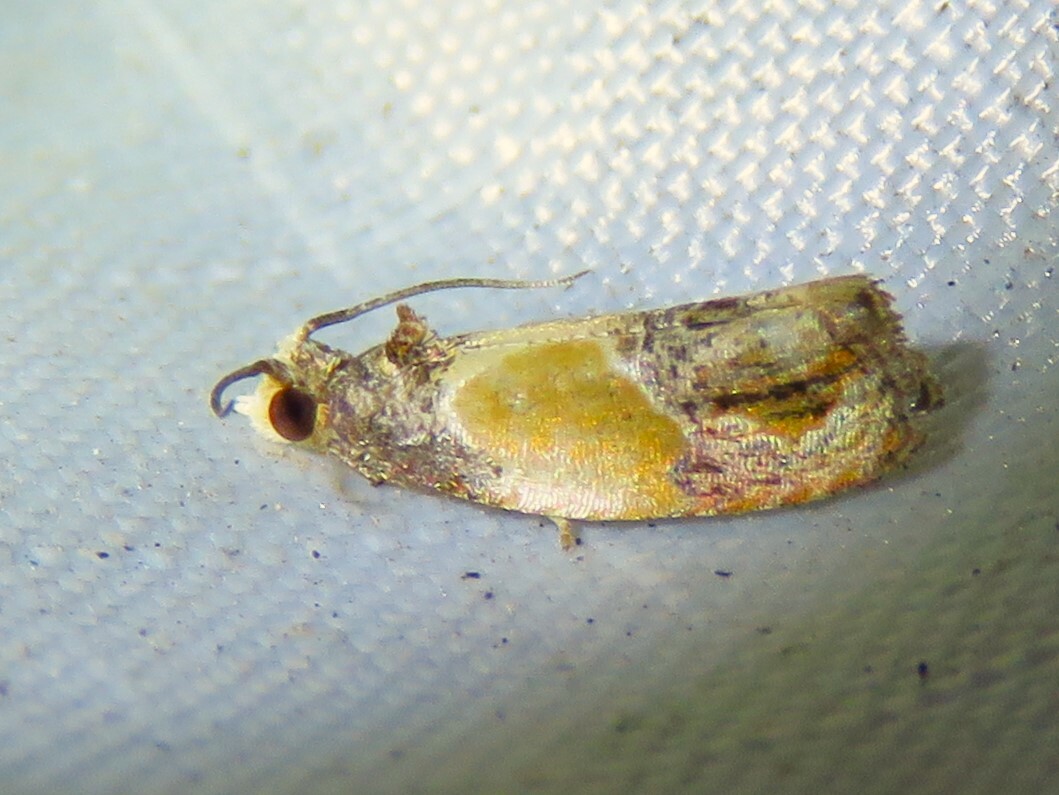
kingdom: Animalia
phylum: Arthropoda
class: Insecta
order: Lepidoptera
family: Tortricidae
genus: Eumarozia
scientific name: Eumarozia malachitana
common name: Sculptured moth
